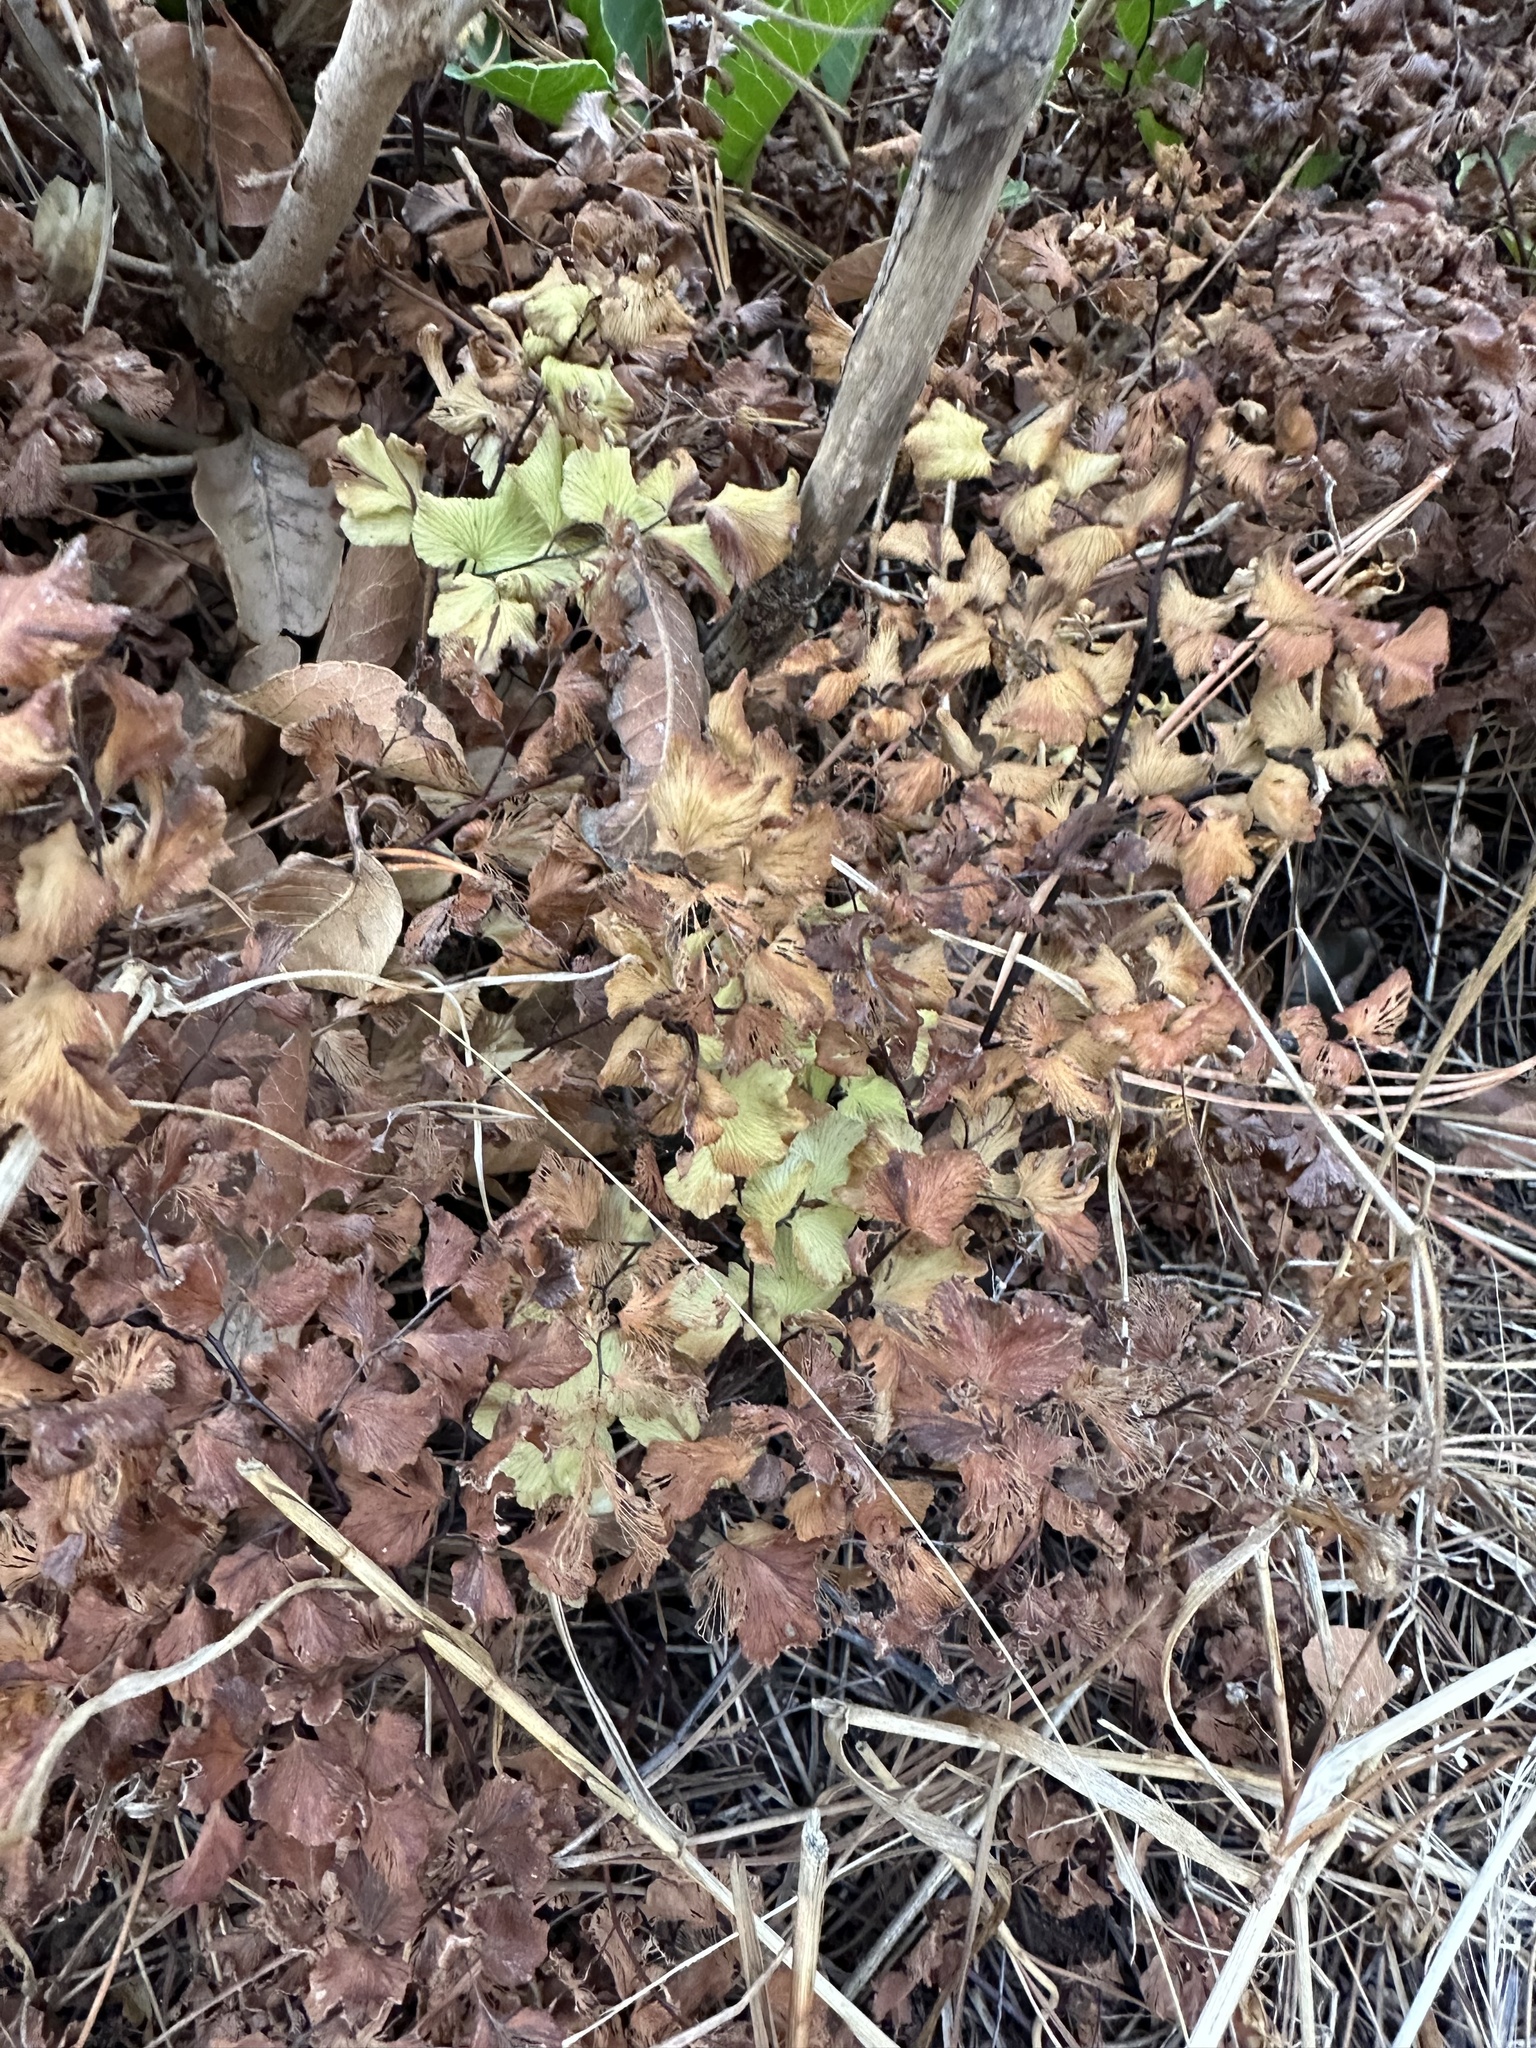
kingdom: Plantae
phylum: Tracheophyta
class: Polypodiopsida
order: Polypodiales
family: Pteridaceae
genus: Adiantum
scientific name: Adiantum chilense
